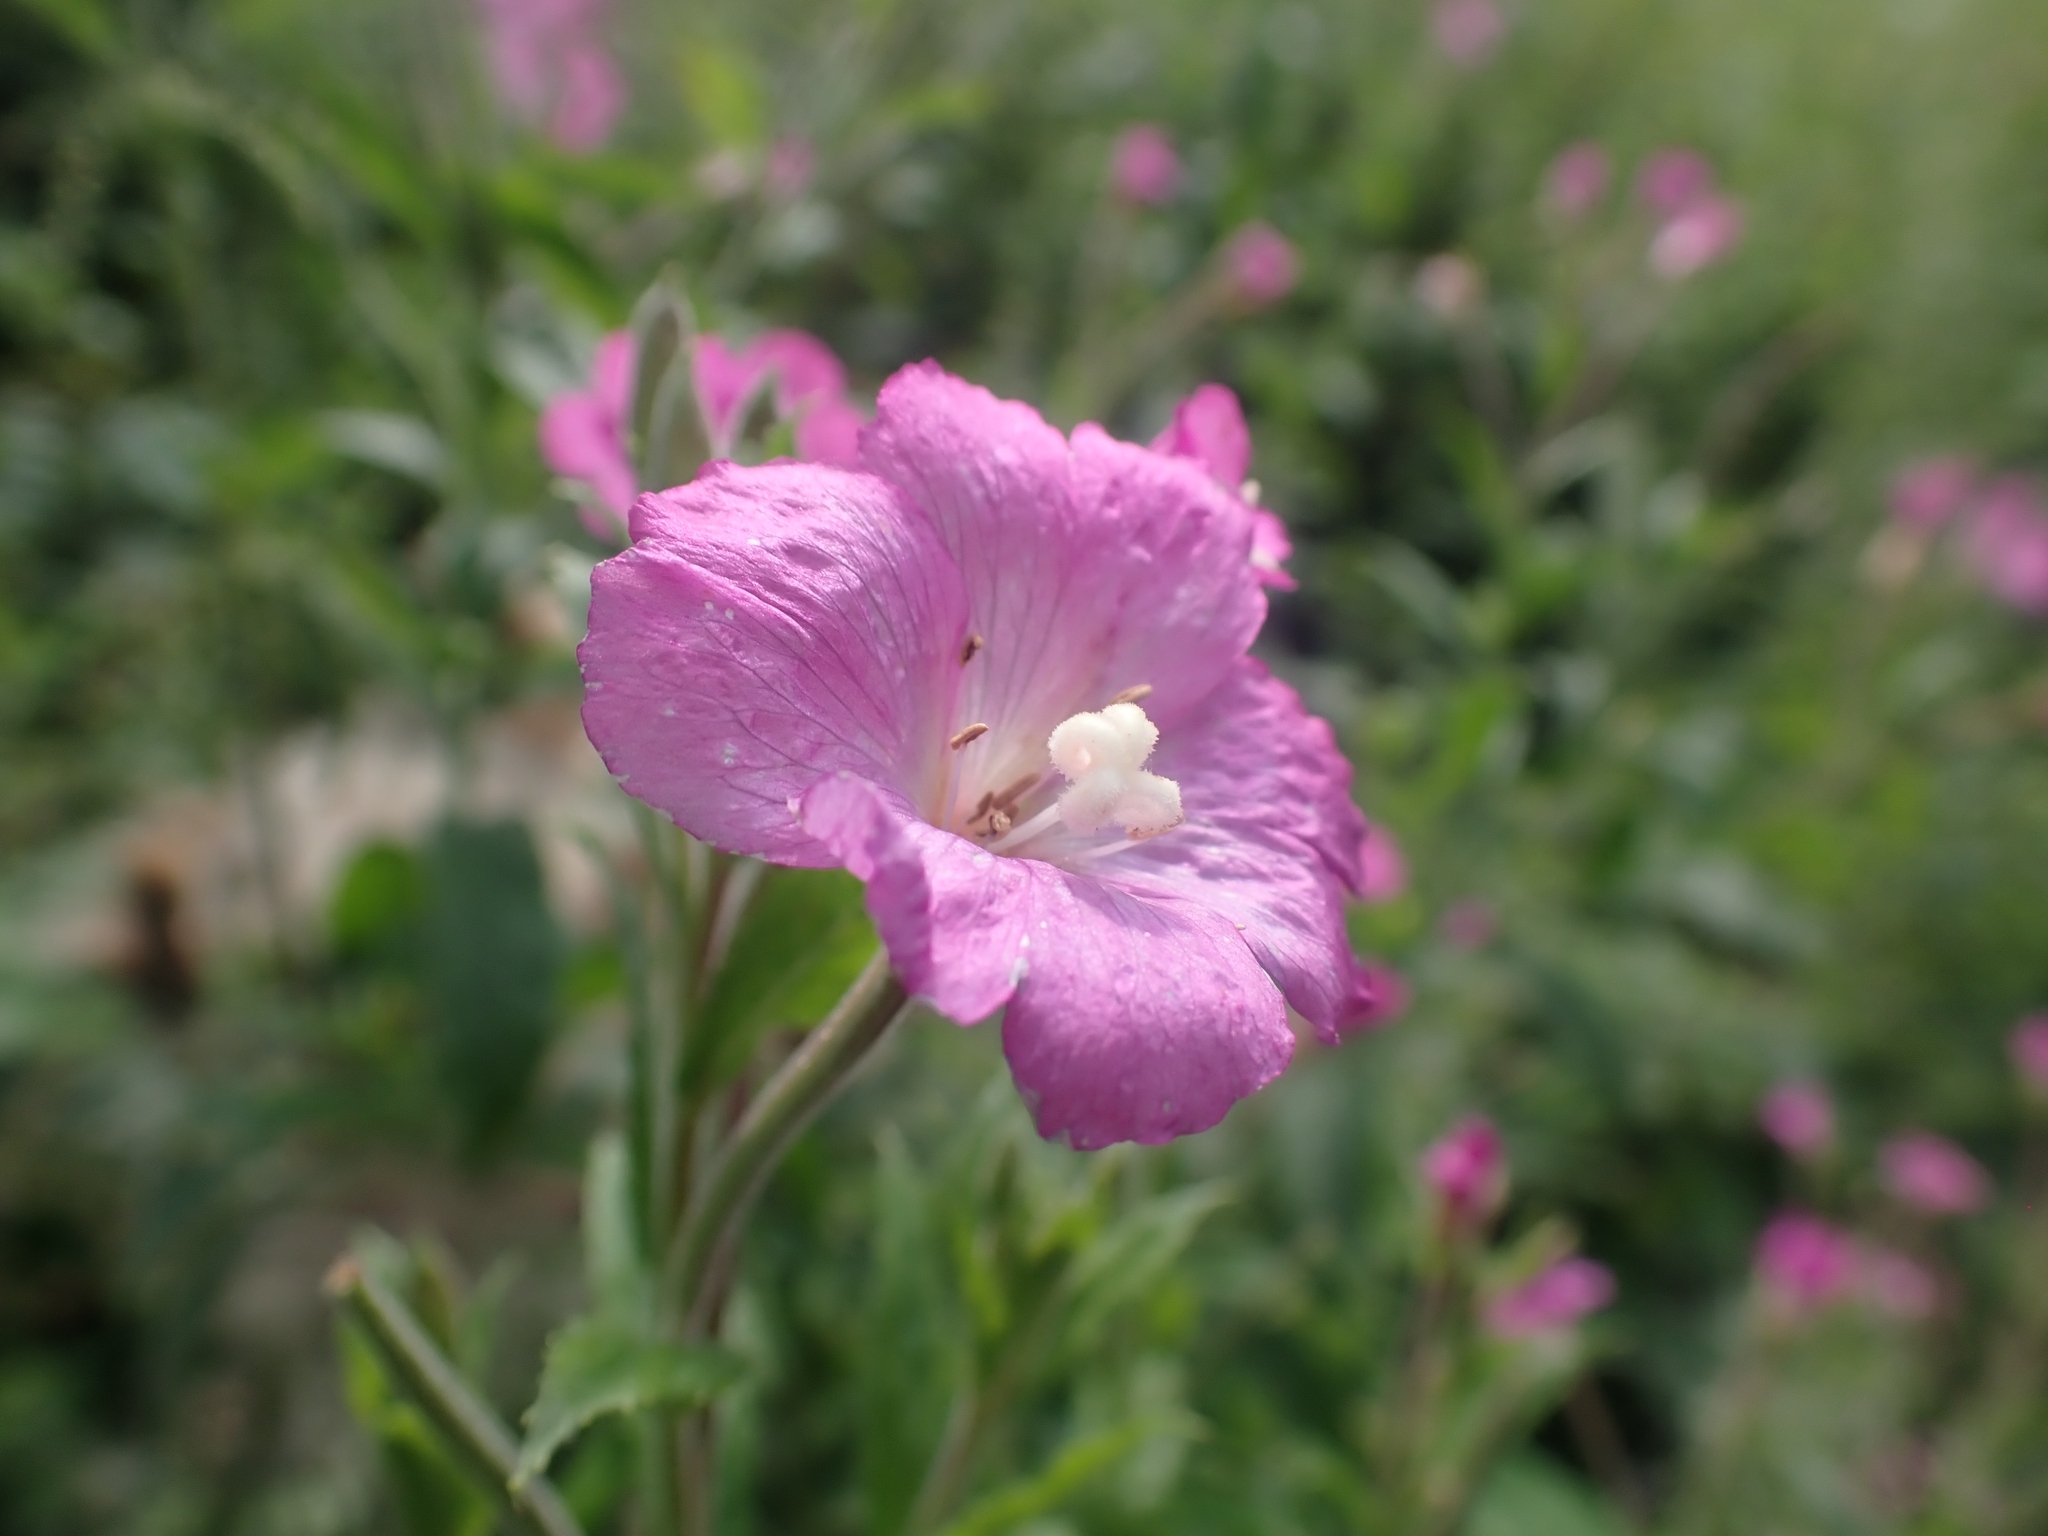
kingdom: Plantae
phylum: Tracheophyta
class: Magnoliopsida
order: Myrtales
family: Onagraceae
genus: Epilobium
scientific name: Epilobium hirsutum
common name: Great willowherb
